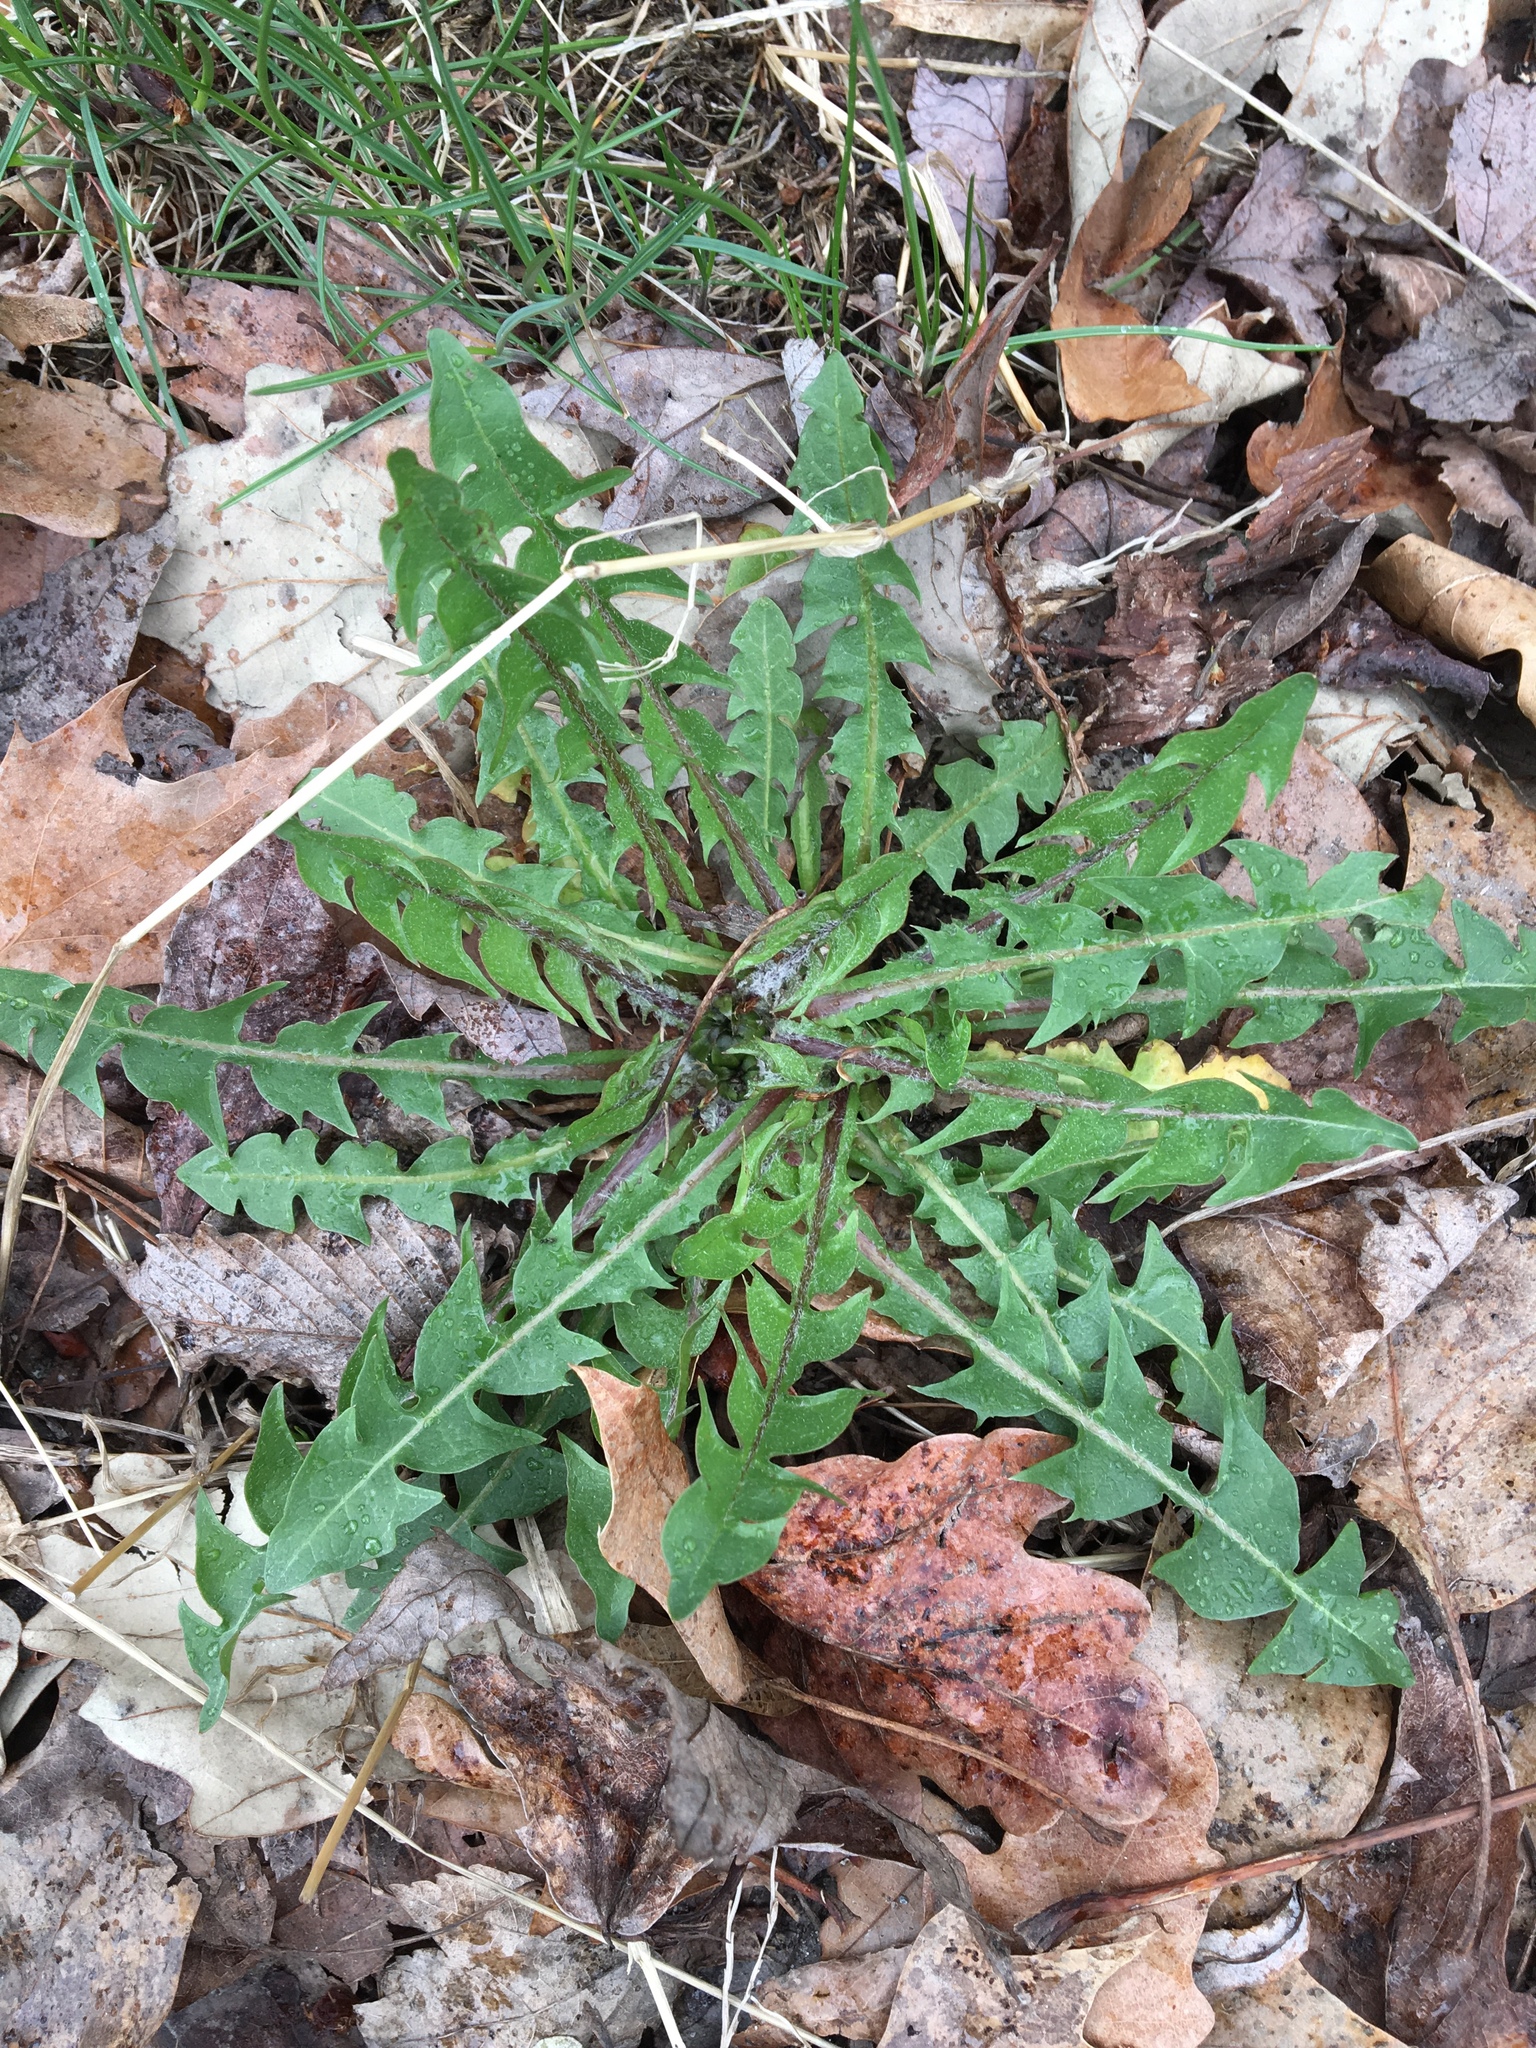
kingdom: Plantae
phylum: Tracheophyta
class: Magnoliopsida
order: Asterales
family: Asteraceae
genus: Taraxacum
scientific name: Taraxacum officinale
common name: Common dandelion
